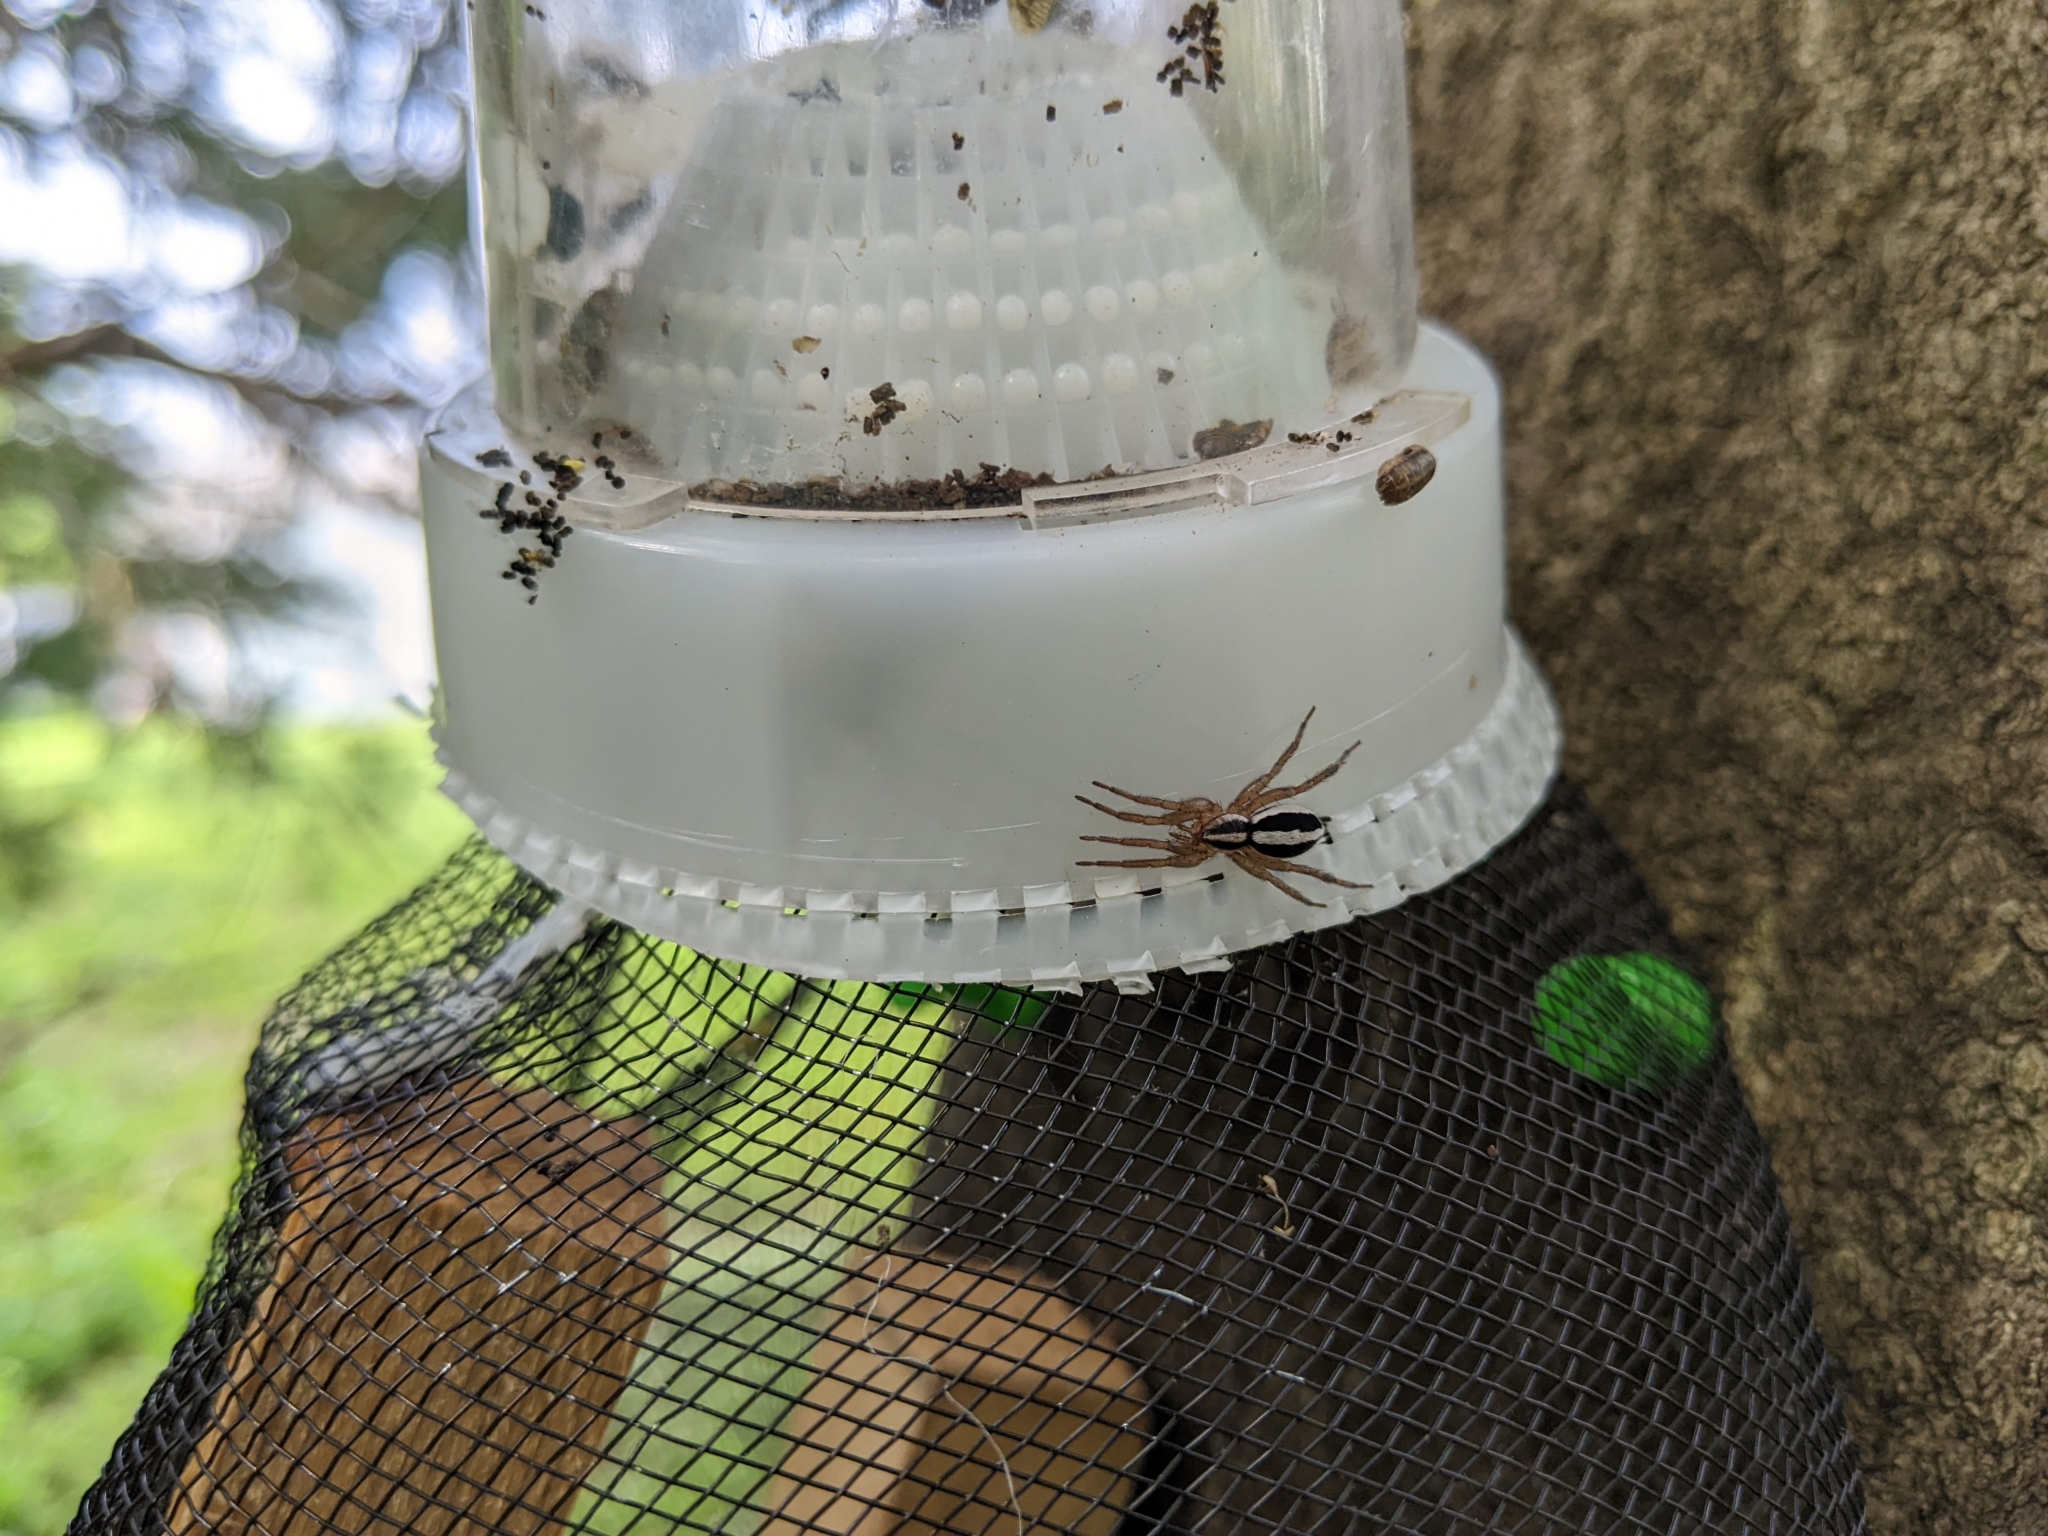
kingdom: Animalia
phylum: Arthropoda
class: Arachnida
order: Araneae
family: Gnaphosidae
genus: Cesonia
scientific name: Cesonia bilineata
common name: Two-lined stealthy ground spider
